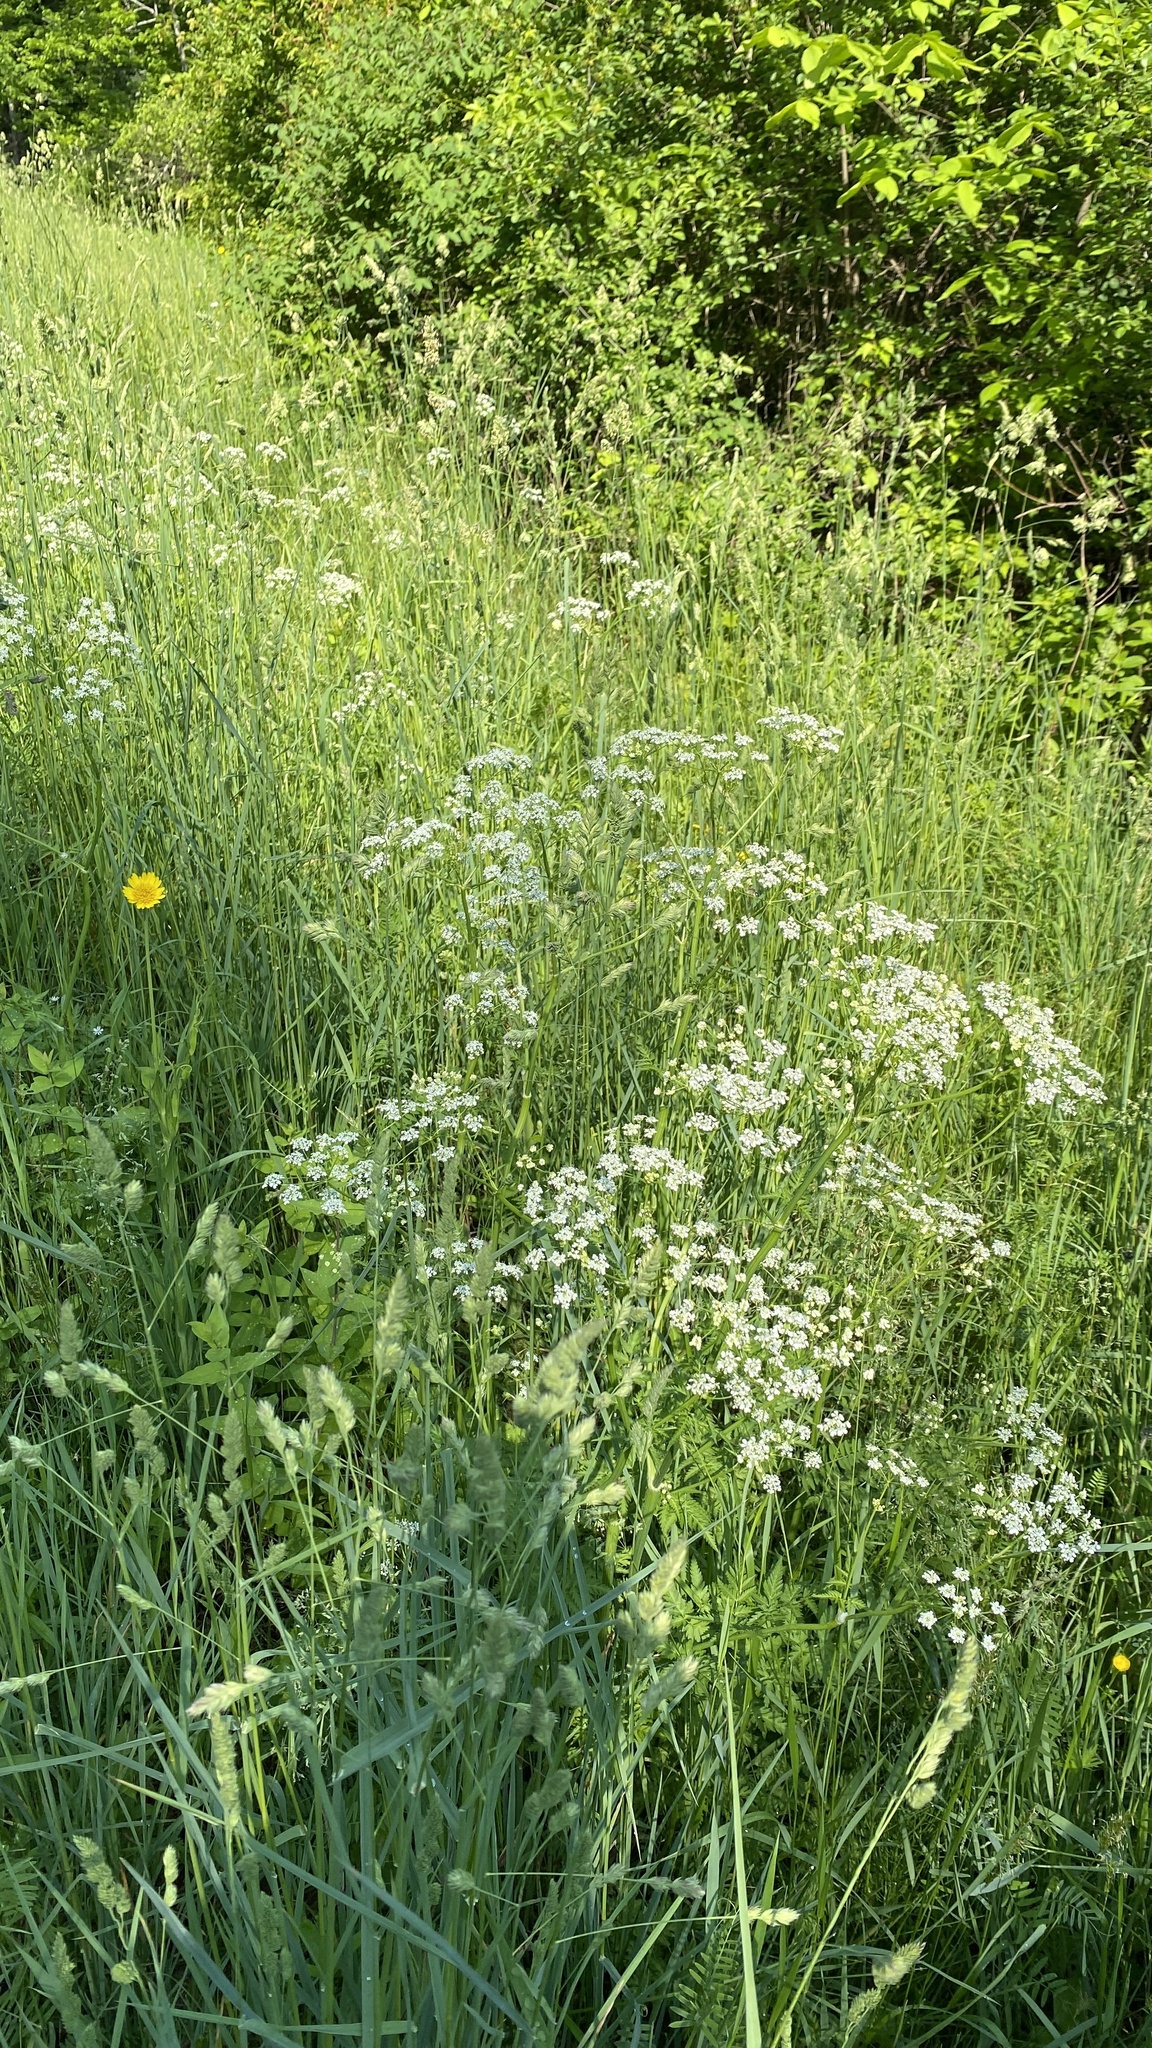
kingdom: Plantae
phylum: Tracheophyta
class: Magnoliopsida
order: Apiales
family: Apiaceae
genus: Anthriscus
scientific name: Anthriscus sylvestris
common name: Cow parsley
